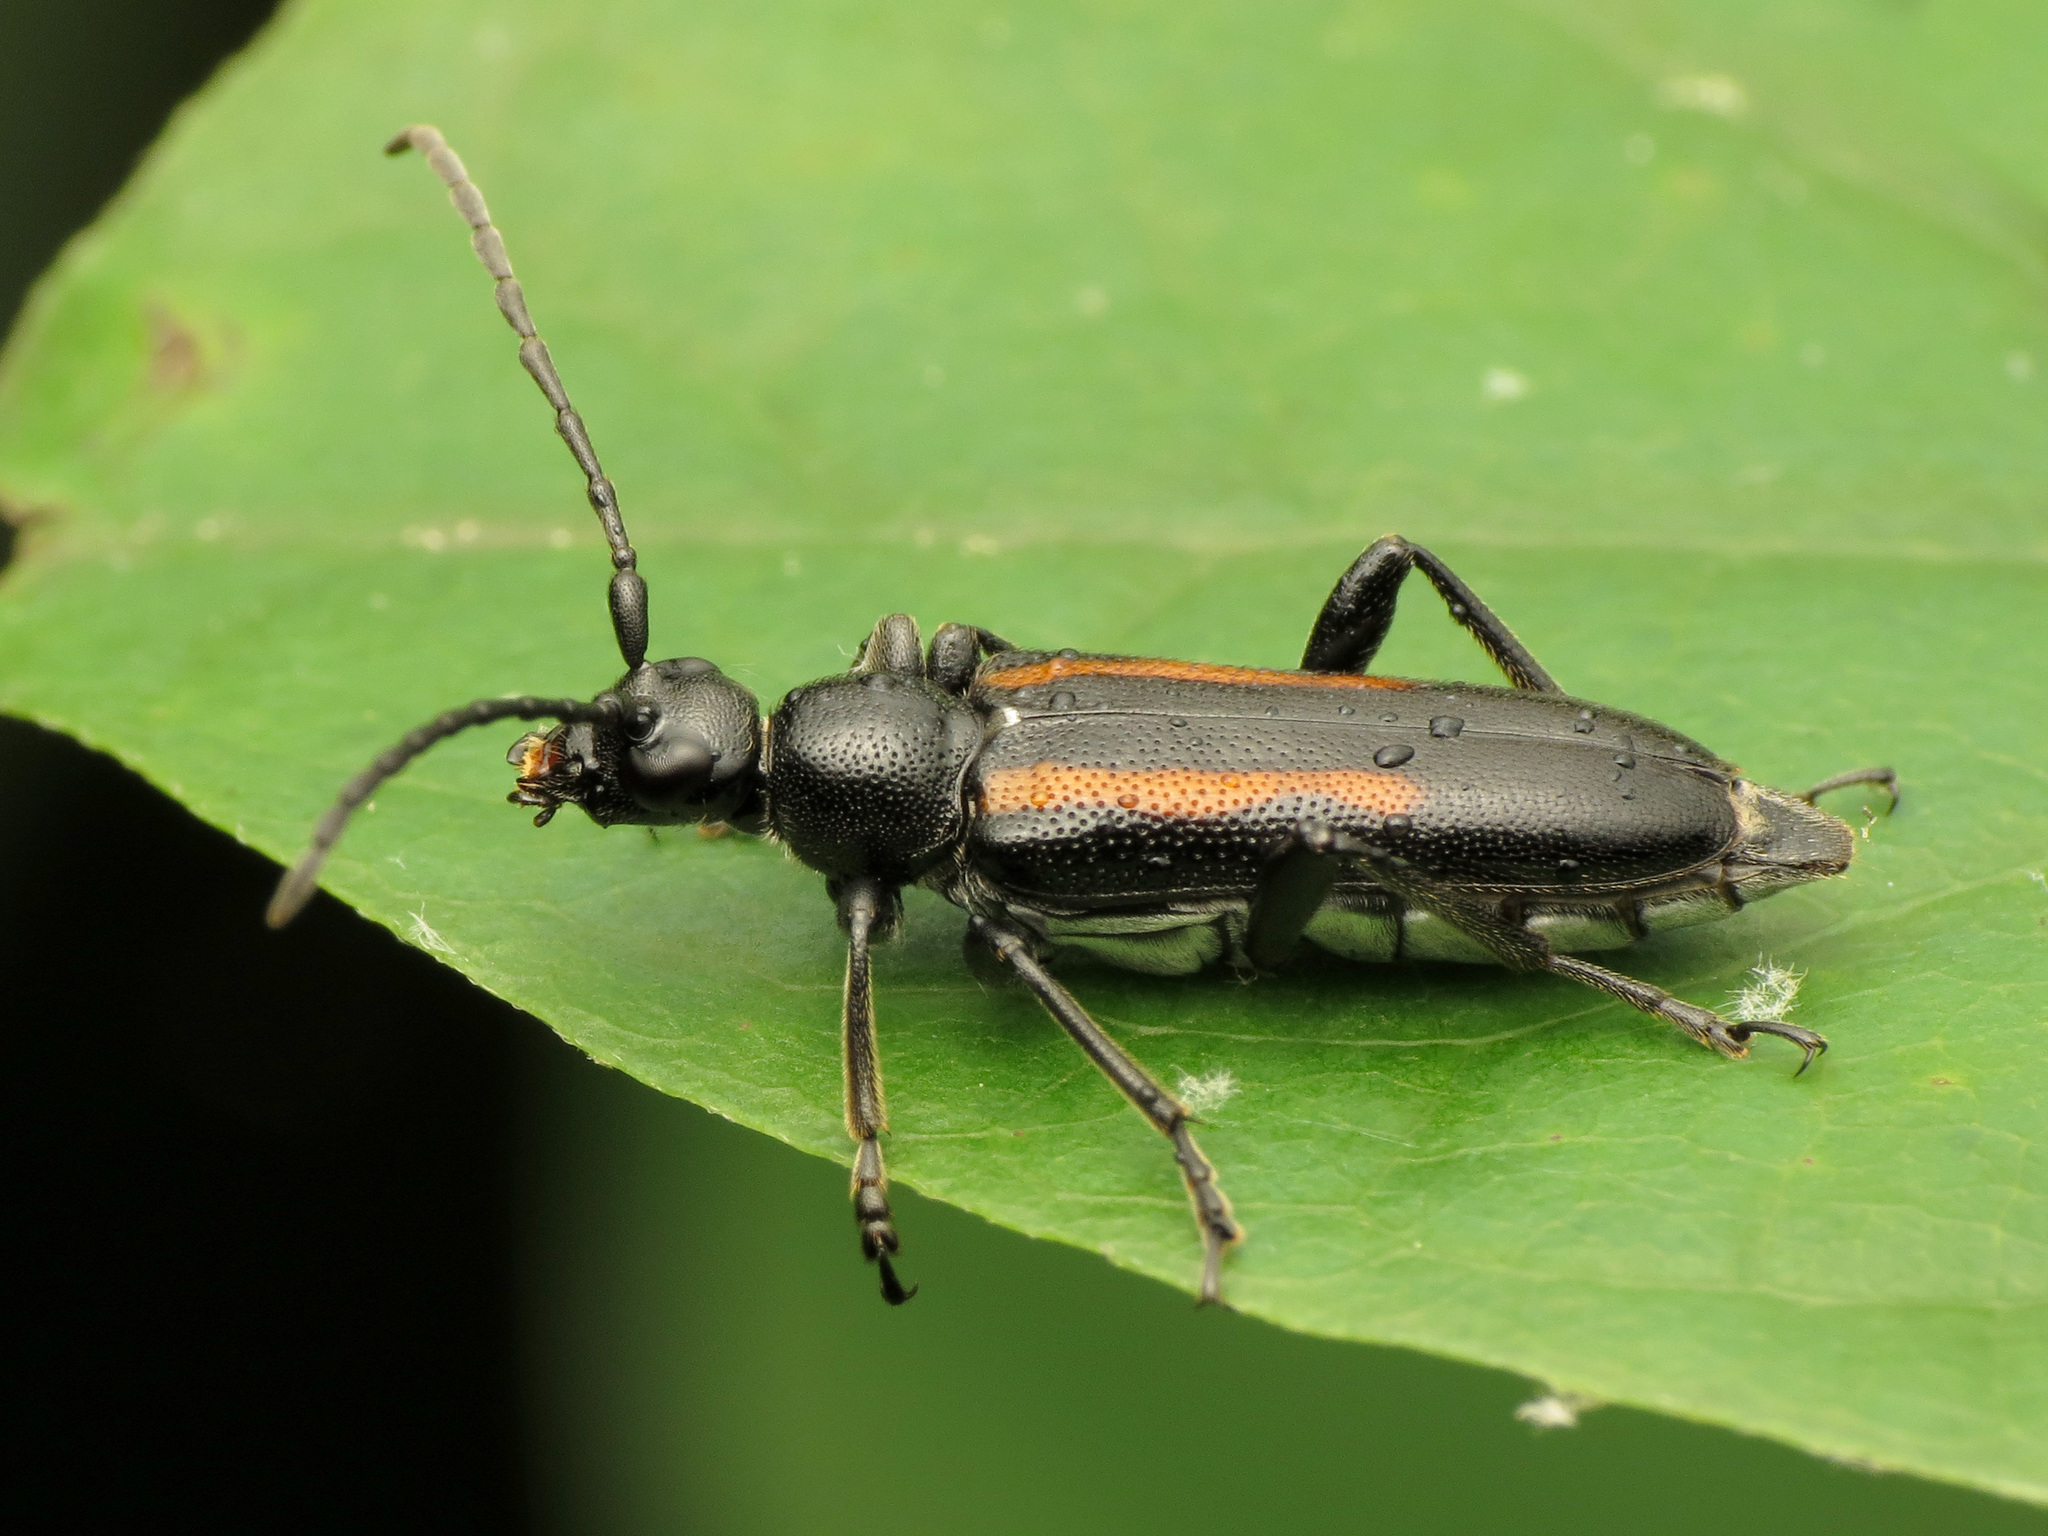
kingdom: Animalia
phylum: Arthropoda
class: Insecta
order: Coleoptera
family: Cerambycidae
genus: Strangalepta
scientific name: Strangalepta abbreviata
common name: Strangalepta flower longhorn beetle
